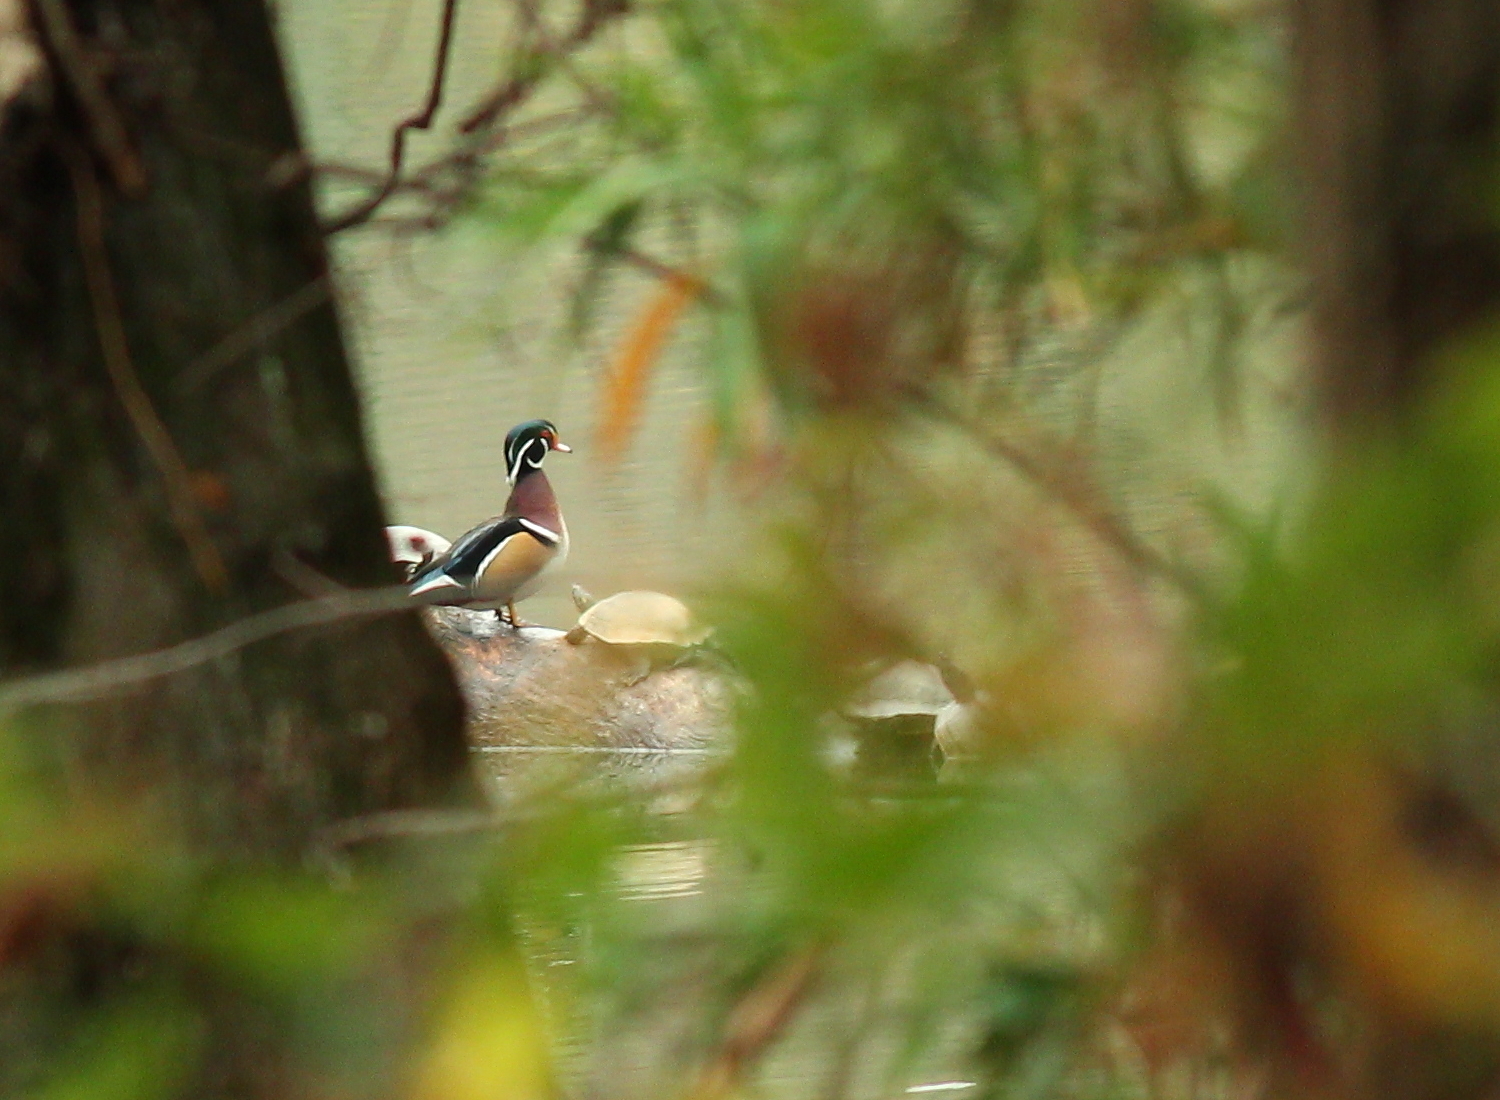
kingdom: Animalia
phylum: Chordata
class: Aves
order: Anseriformes
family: Anatidae
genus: Aix
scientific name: Aix sponsa
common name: Wood duck
